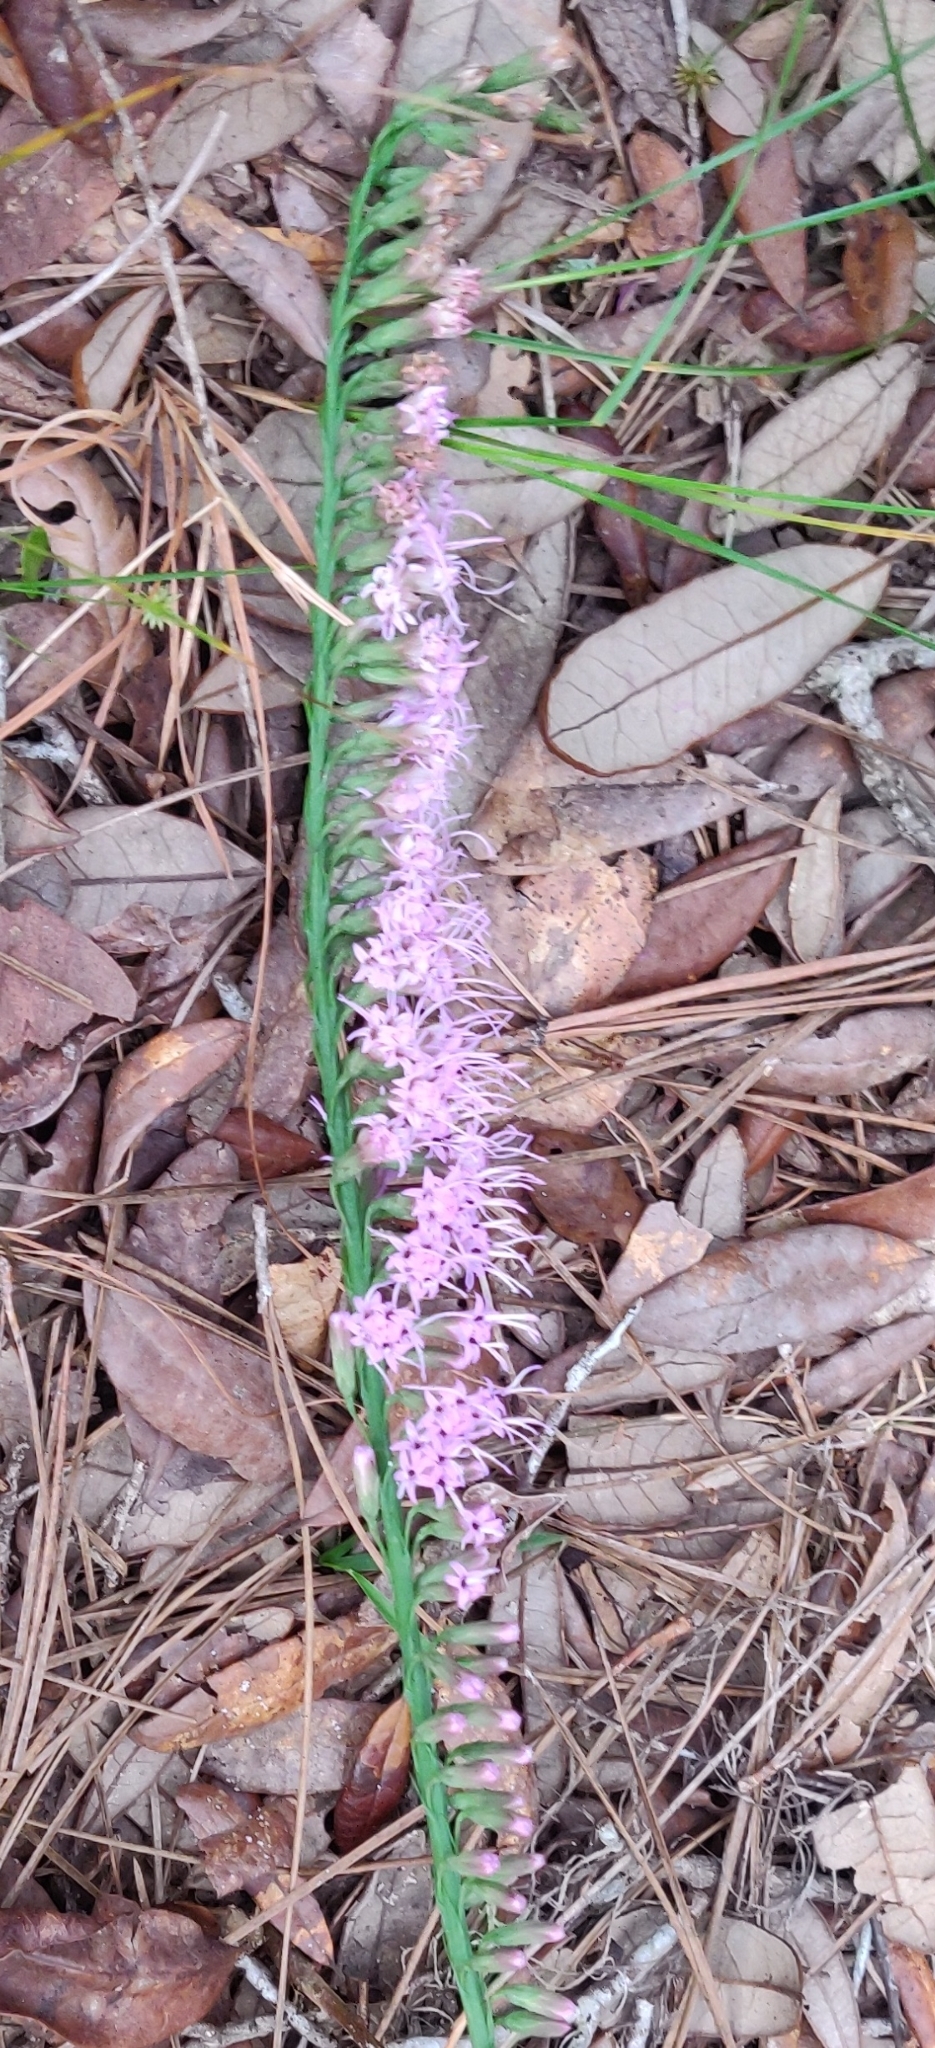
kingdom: Plantae
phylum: Tracheophyta
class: Magnoliopsida
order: Asterales
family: Asteraceae
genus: Liatris
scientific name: Liatris laevigata
